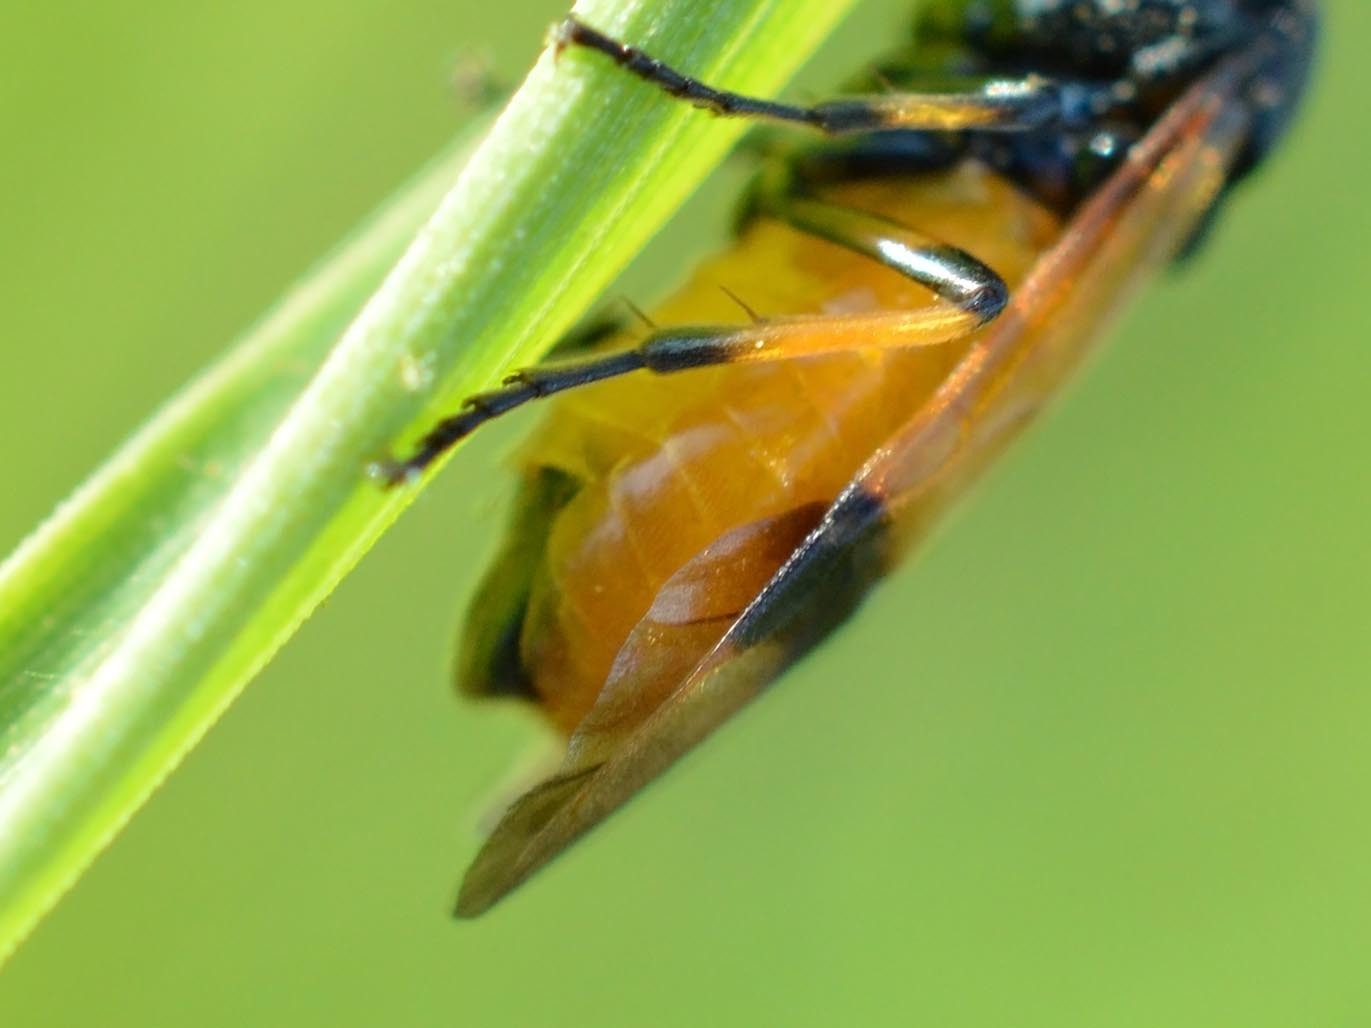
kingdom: Animalia
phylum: Arthropoda
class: Insecta
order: Hymenoptera
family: Argidae
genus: Arge
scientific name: Arge cyanocrocea
